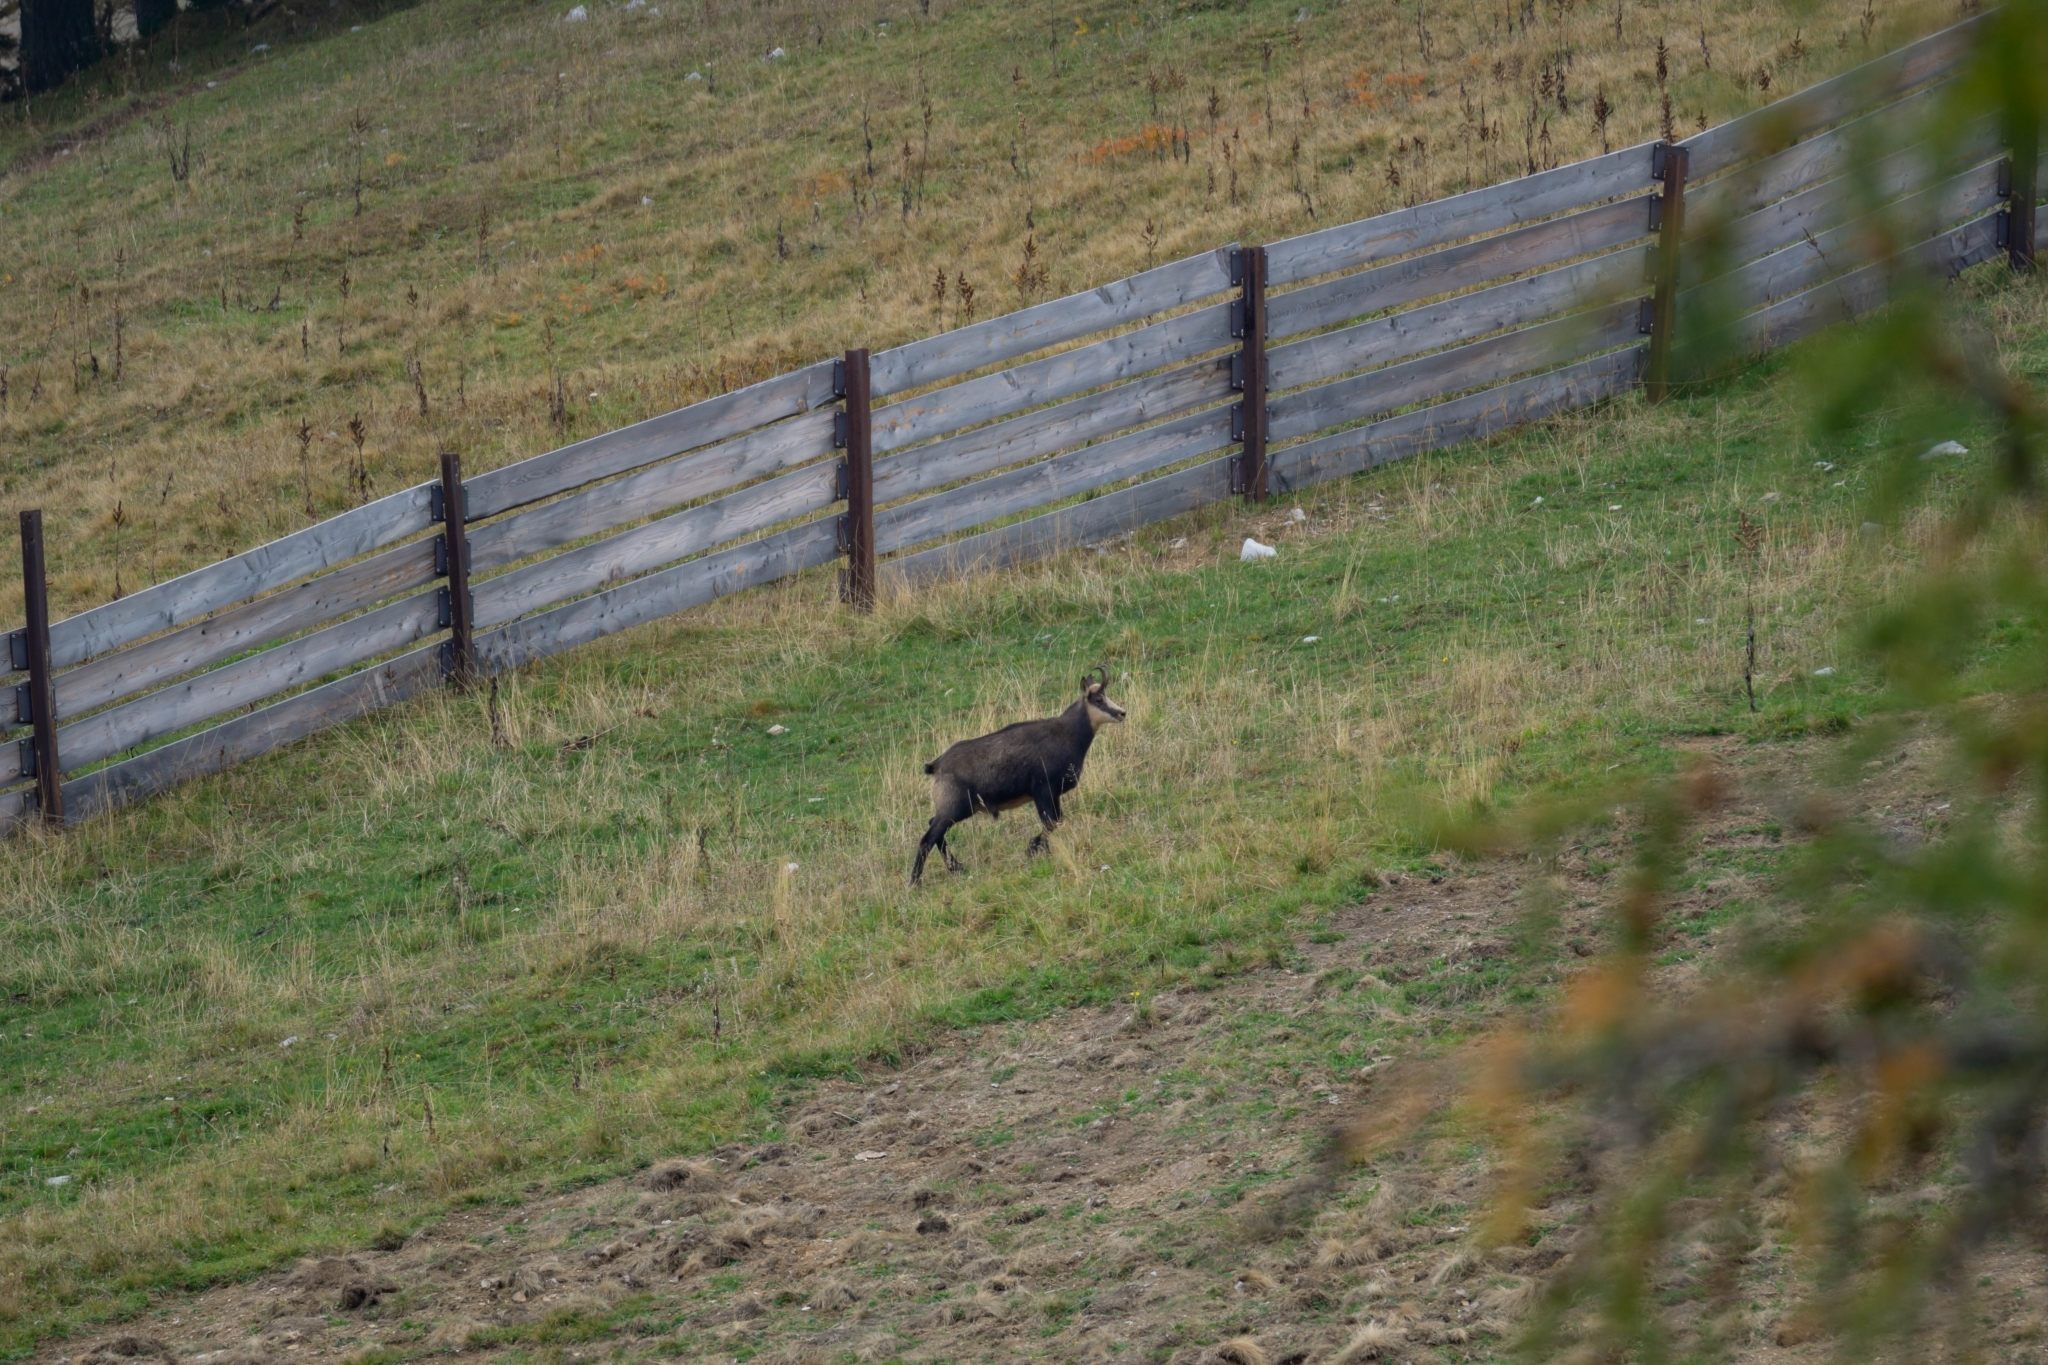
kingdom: Animalia
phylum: Chordata
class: Mammalia
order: Artiodactyla
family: Bovidae
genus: Rupicapra
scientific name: Rupicapra rupicapra
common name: Chamois
